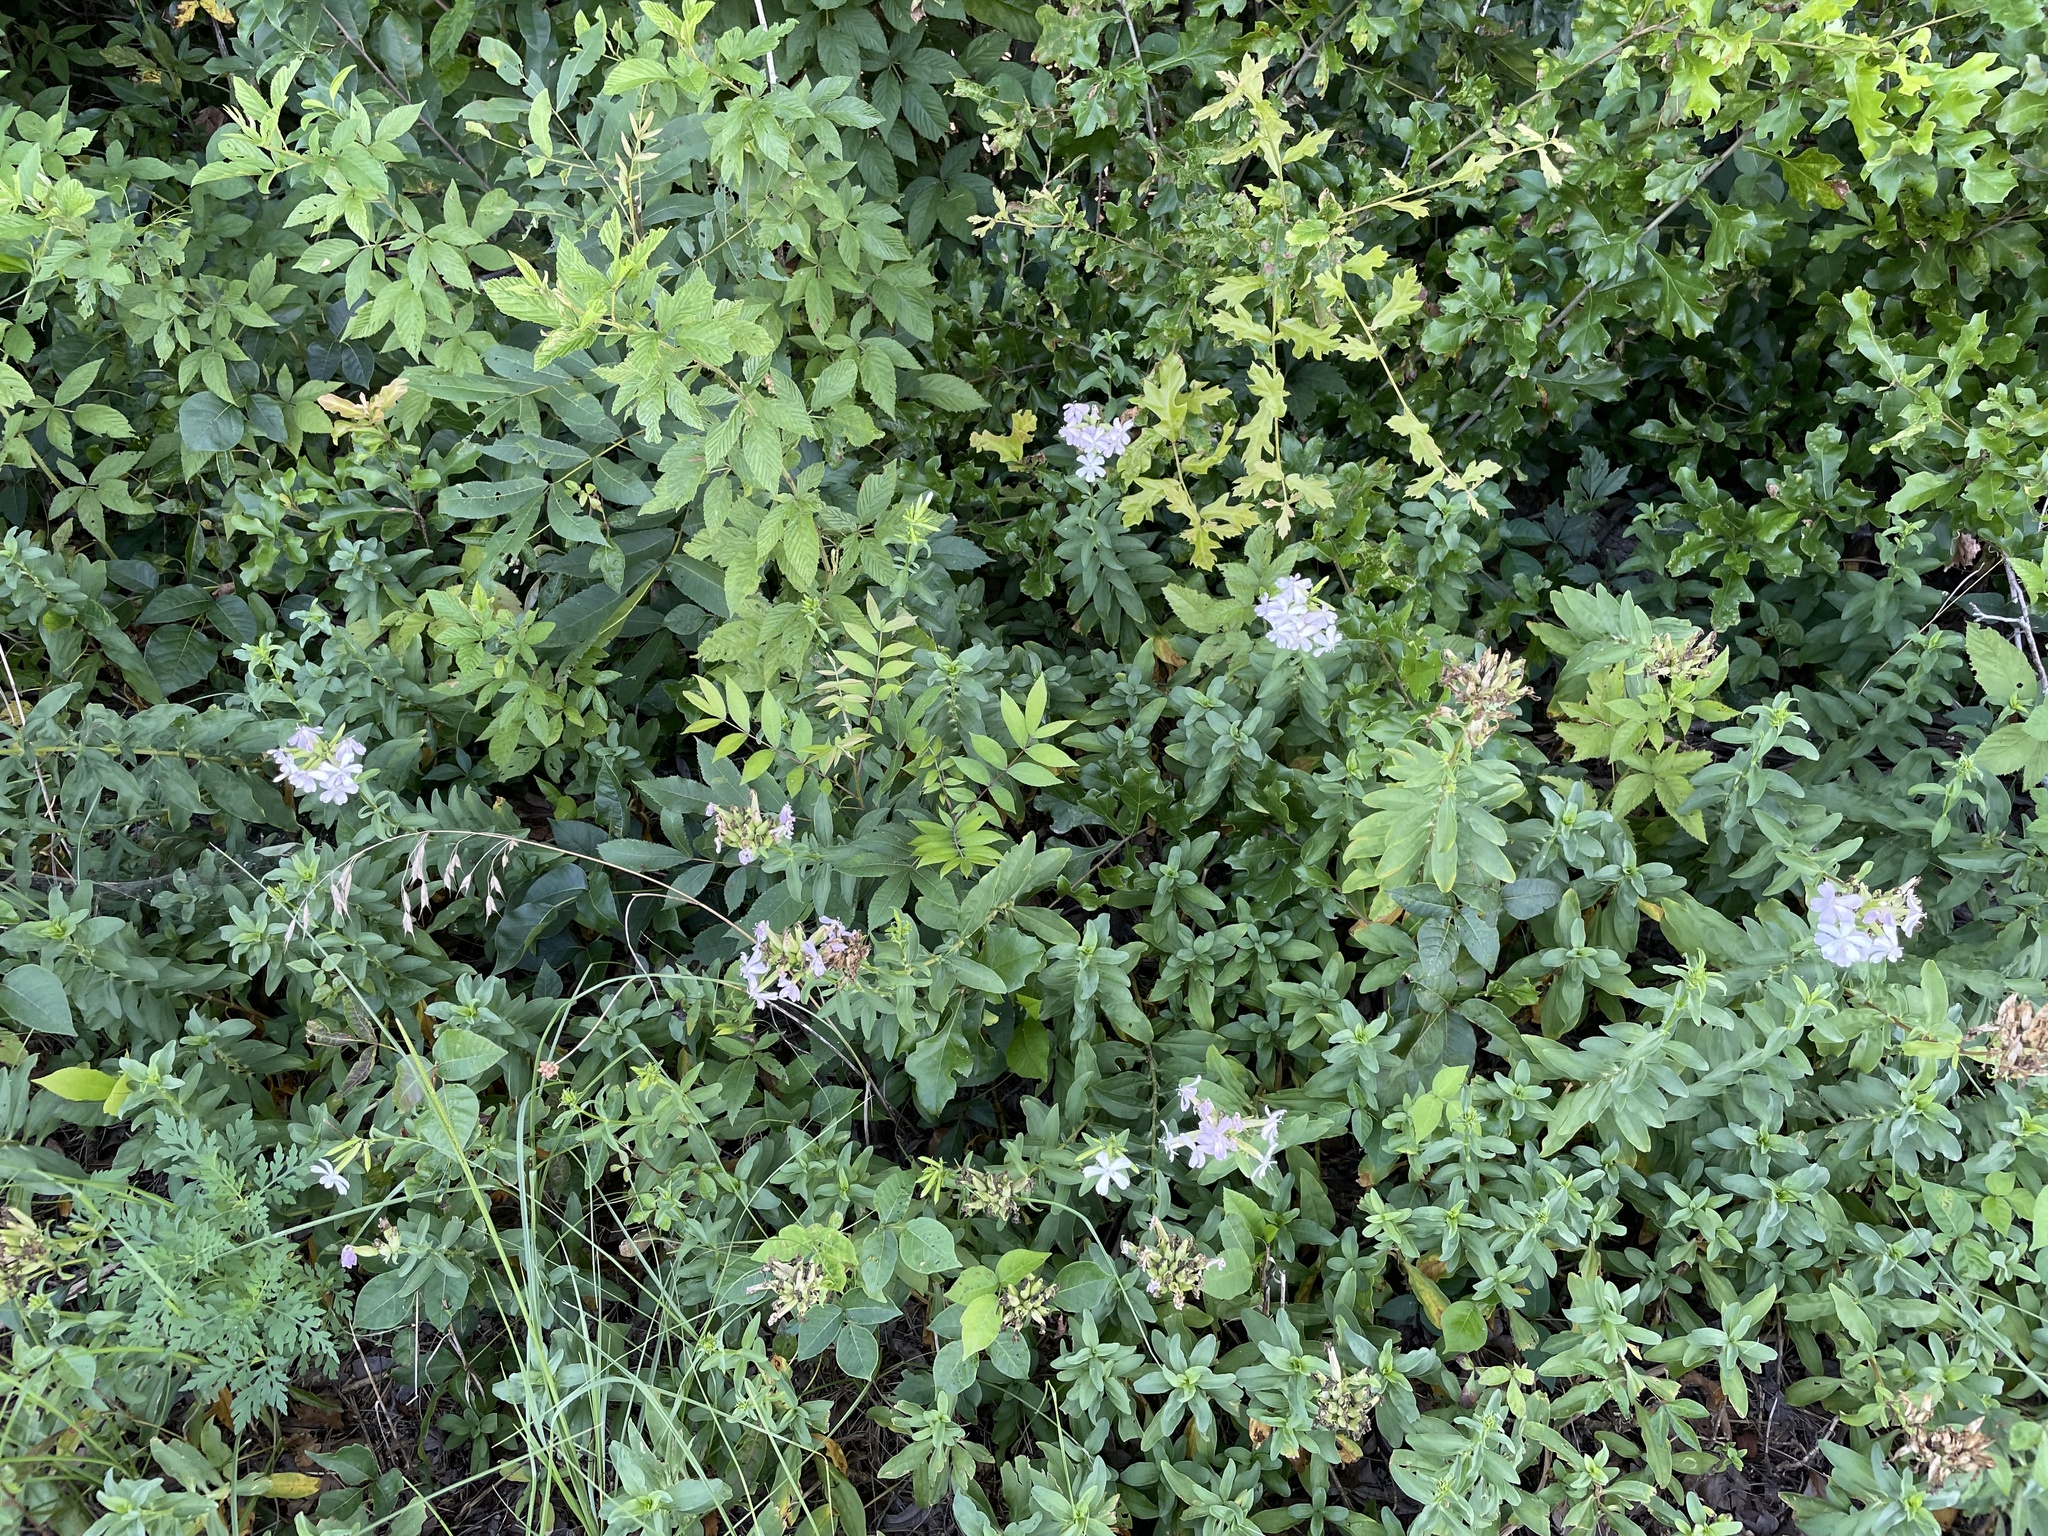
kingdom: Plantae
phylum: Tracheophyta
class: Magnoliopsida
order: Caryophyllales
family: Caryophyllaceae
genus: Saponaria
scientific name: Saponaria officinalis
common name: Soapwort
